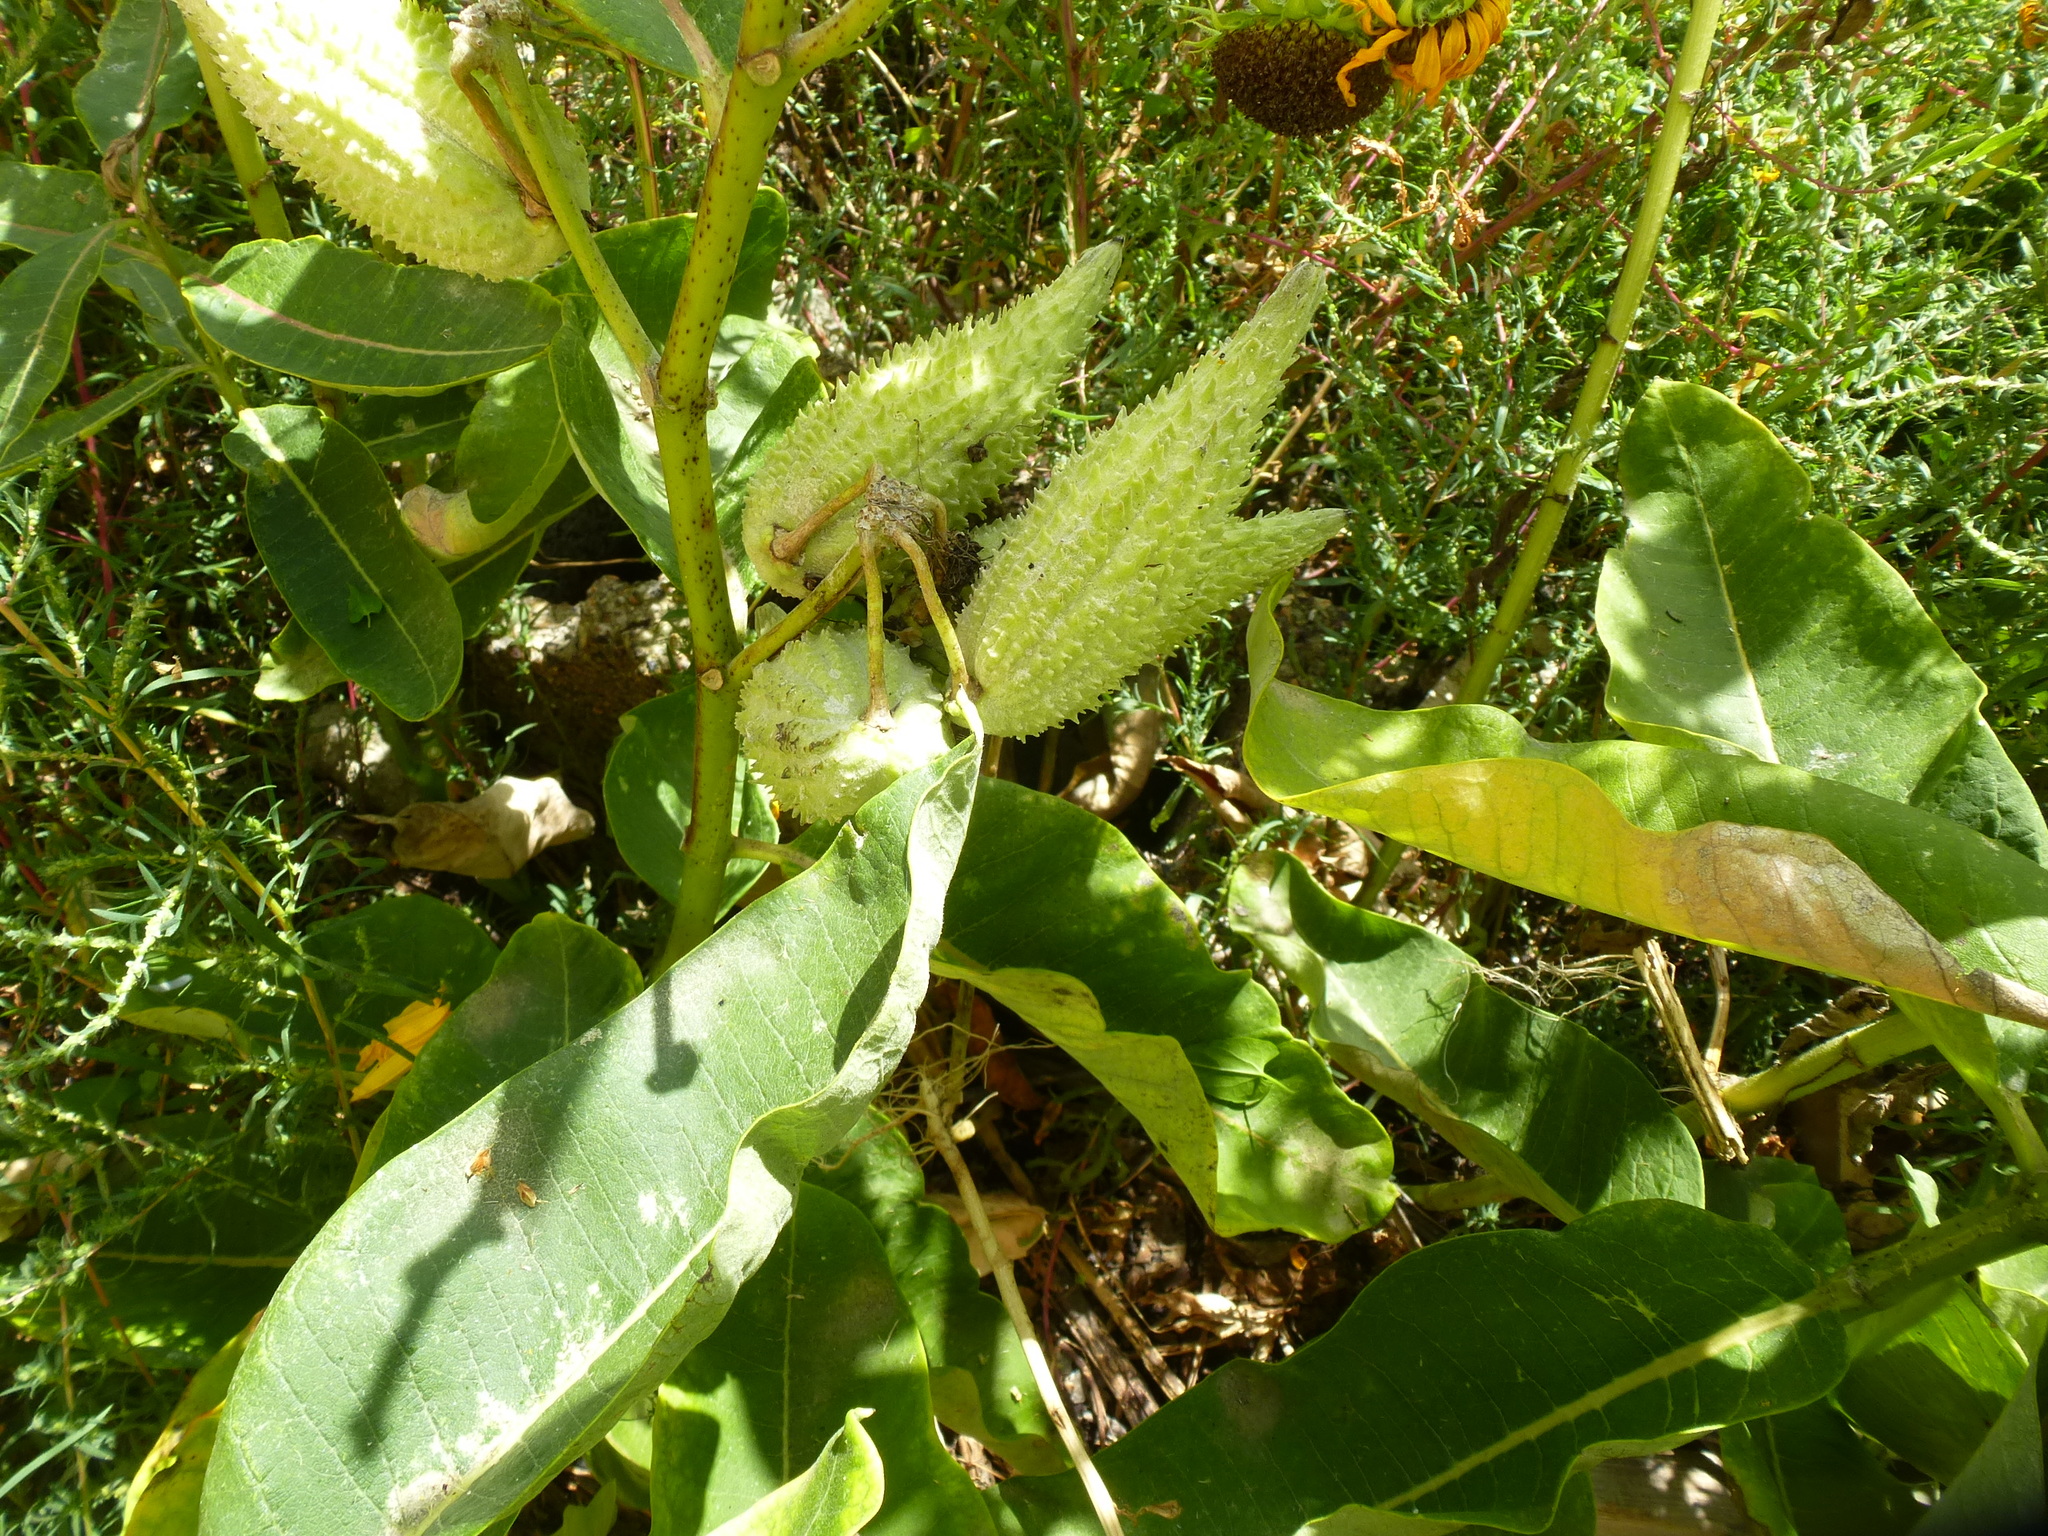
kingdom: Plantae
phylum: Tracheophyta
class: Magnoliopsida
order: Gentianales
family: Apocynaceae
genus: Asclepias
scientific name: Asclepias syriaca
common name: Common milkweed
